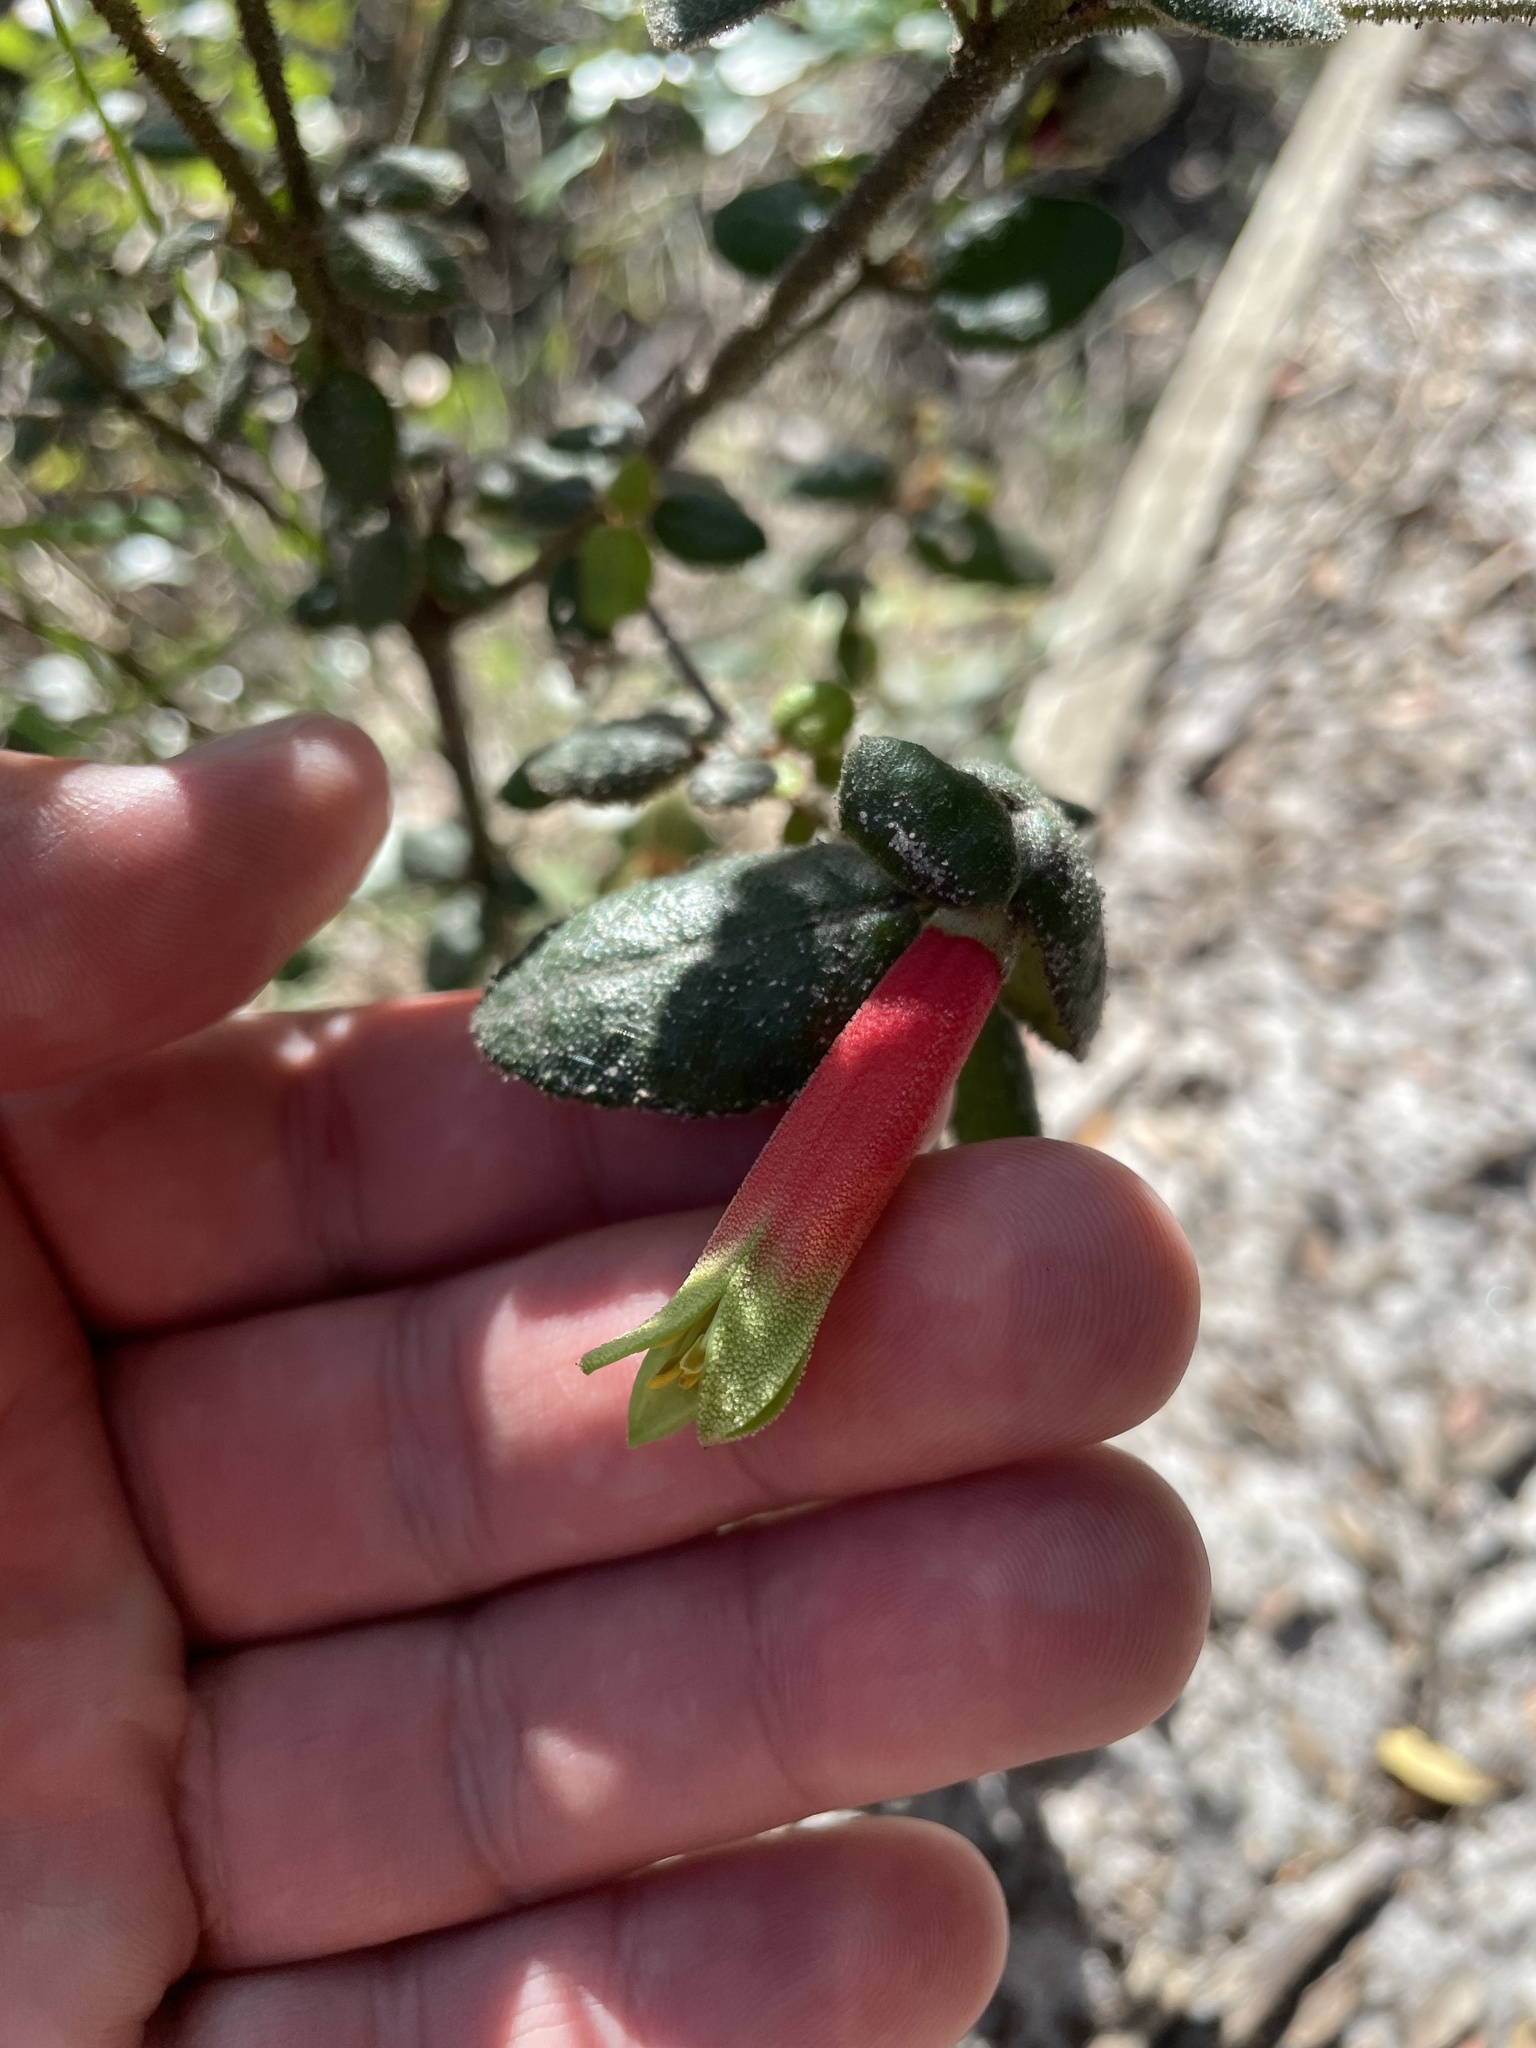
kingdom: Plantae
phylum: Tracheophyta
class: Magnoliopsida
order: Sapindales
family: Rutaceae
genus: Correa
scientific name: Correa reflexa
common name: Common correa
